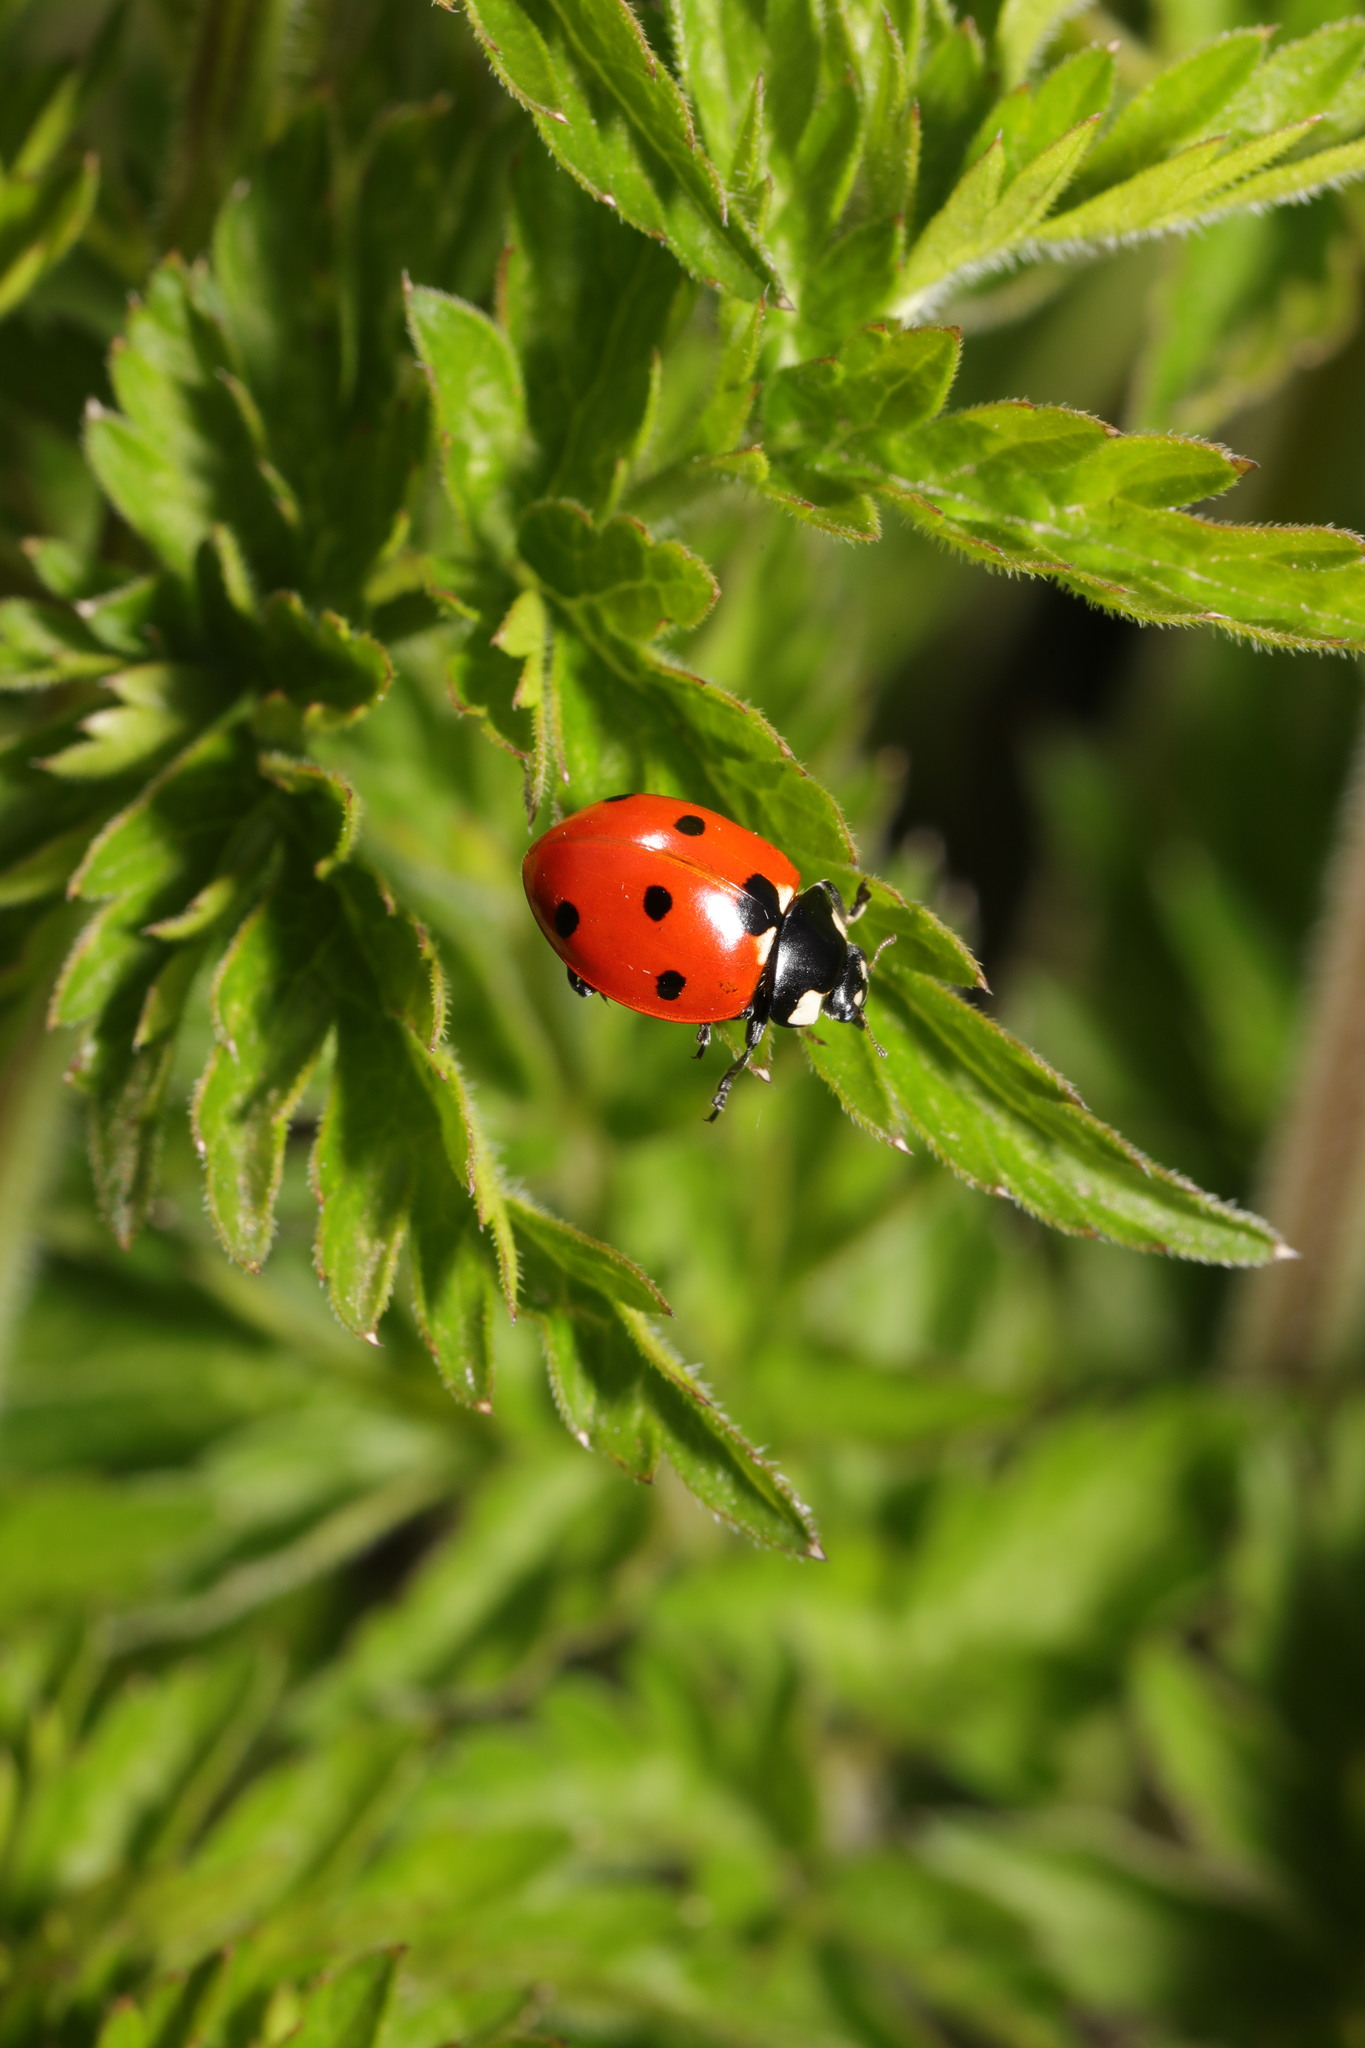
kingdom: Animalia
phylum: Arthropoda
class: Insecta
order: Coleoptera
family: Coccinellidae
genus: Coccinella
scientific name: Coccinella septempunctata
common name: Sevenspotted lady beetle
